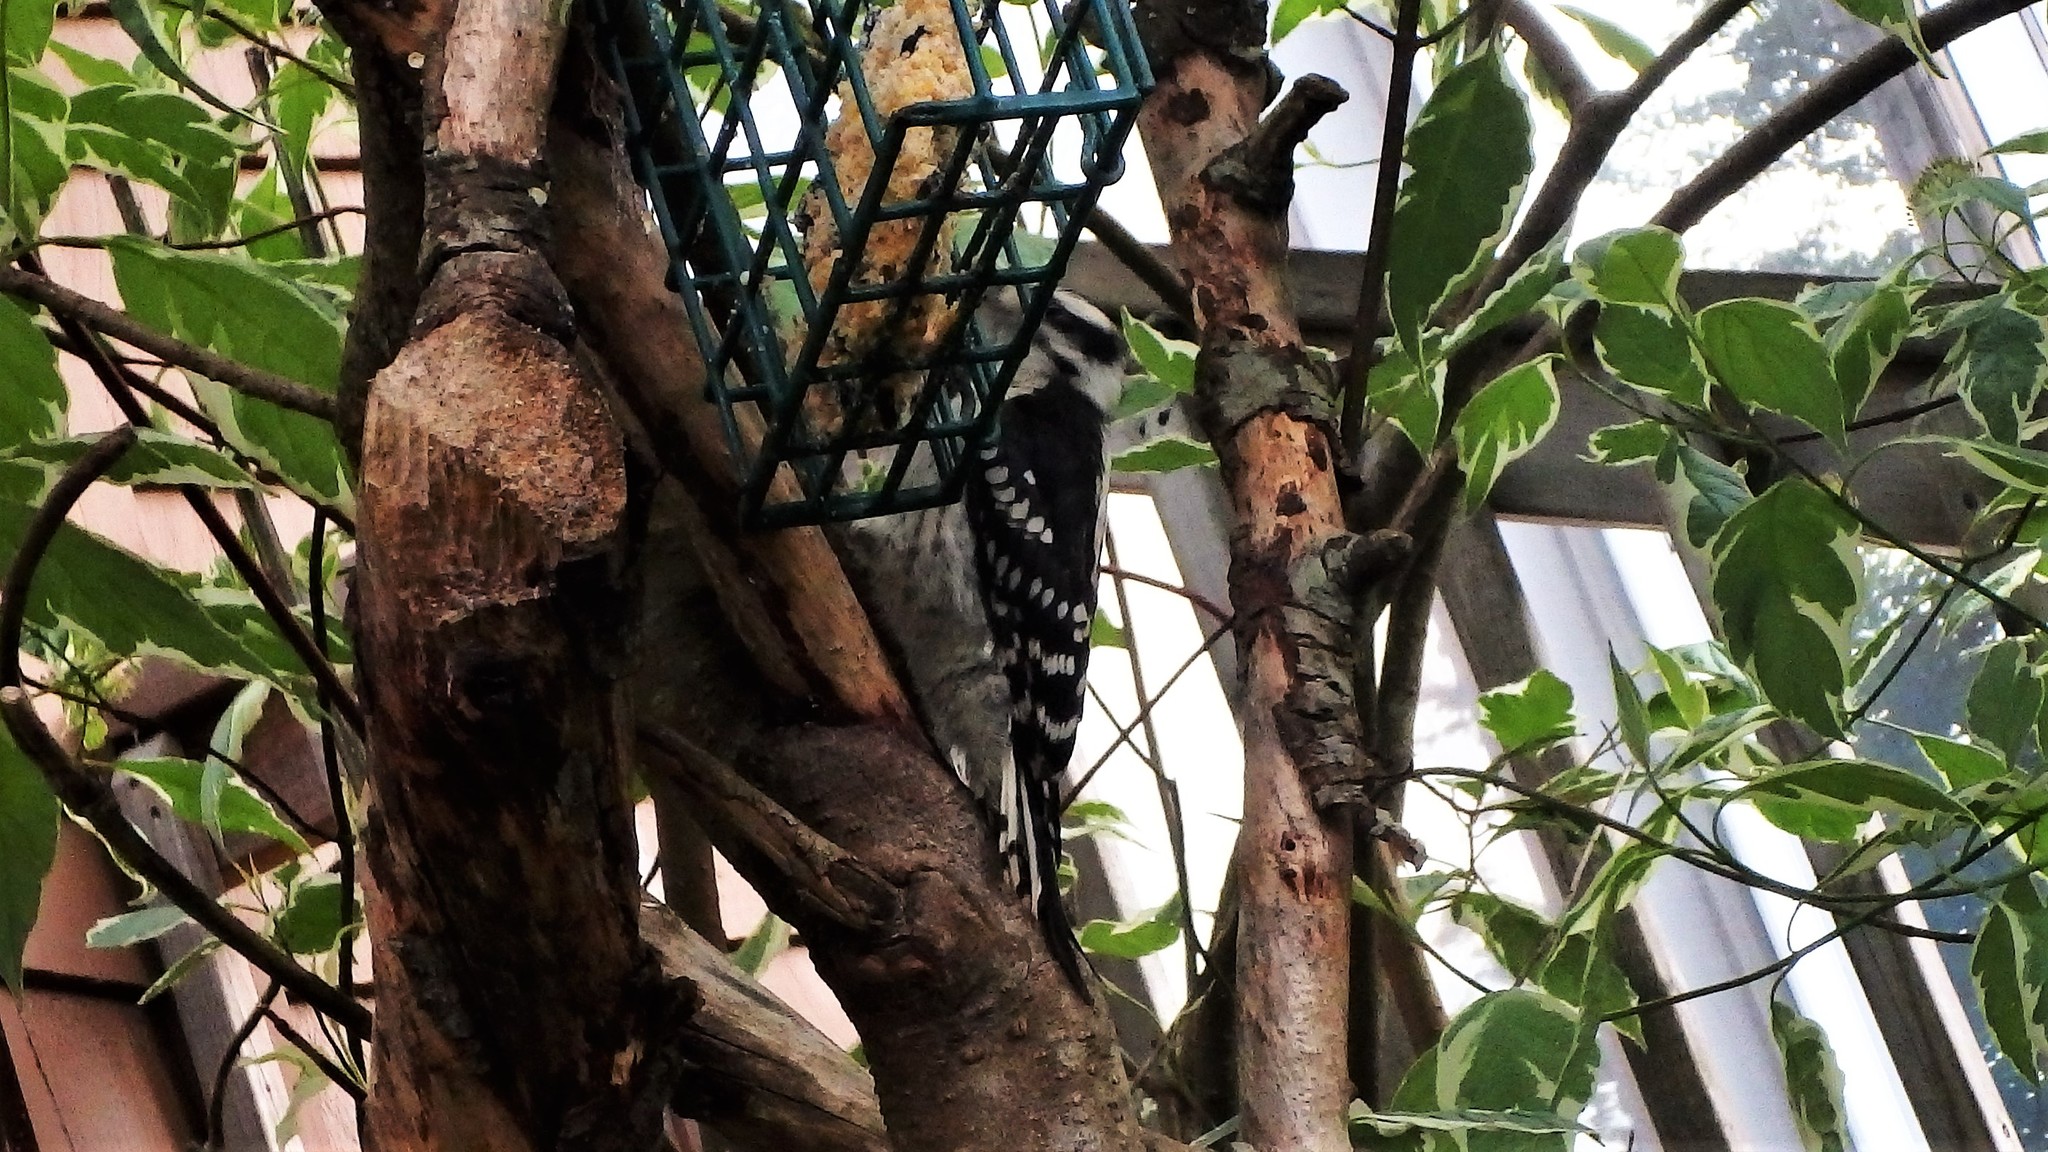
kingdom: Animalia
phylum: Chordata
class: Aves
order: Piciformes
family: Picidae
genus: Leuconotopicus
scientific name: Leuconotopicus villosus
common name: Hairy woodpecker
